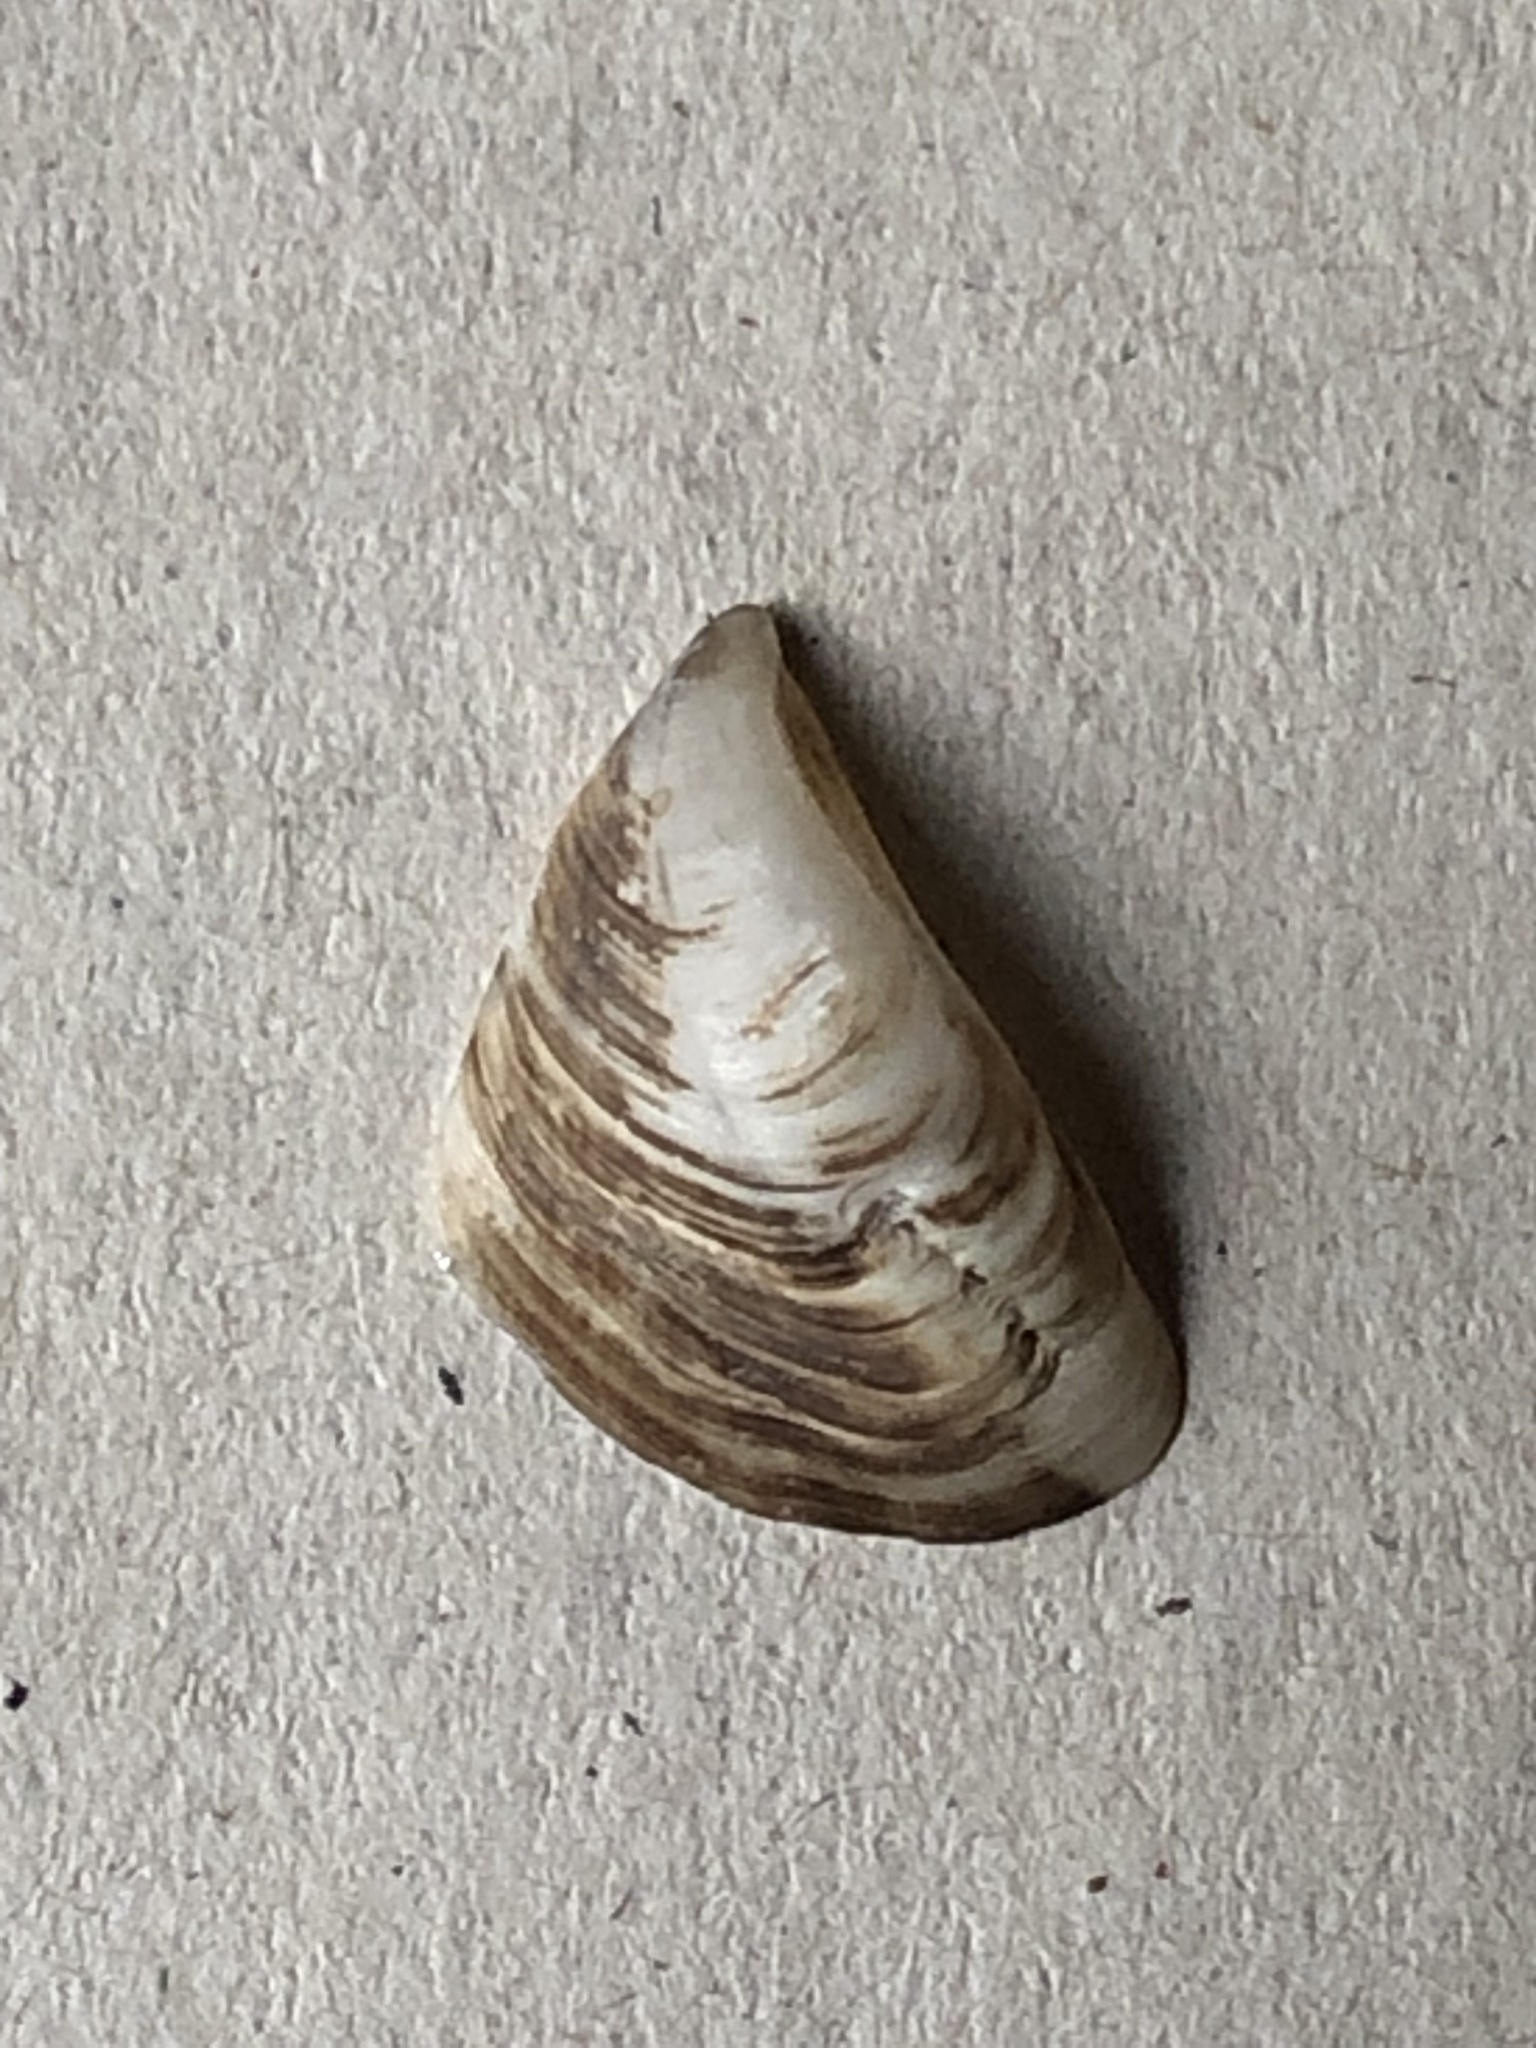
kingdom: Animalia
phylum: Mollusca
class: Bivalvia
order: Myida
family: Dreissenidae
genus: Dreissena
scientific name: Dreissena bugensis
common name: Quagga mussel
